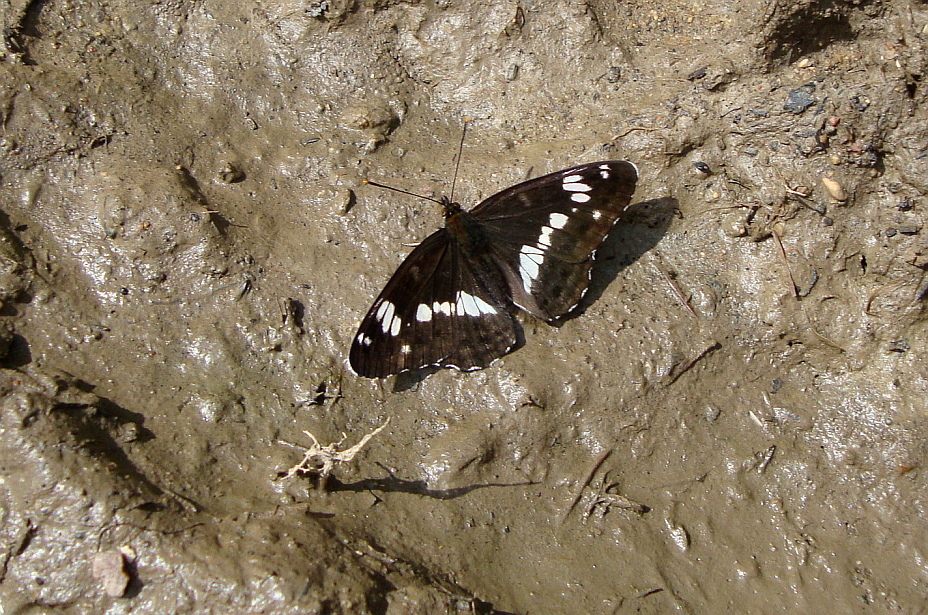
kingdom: Animalia
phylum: Arthropoda
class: Insecta
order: Lepidoptera
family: Nymphalidae
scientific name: Nymphalidae
